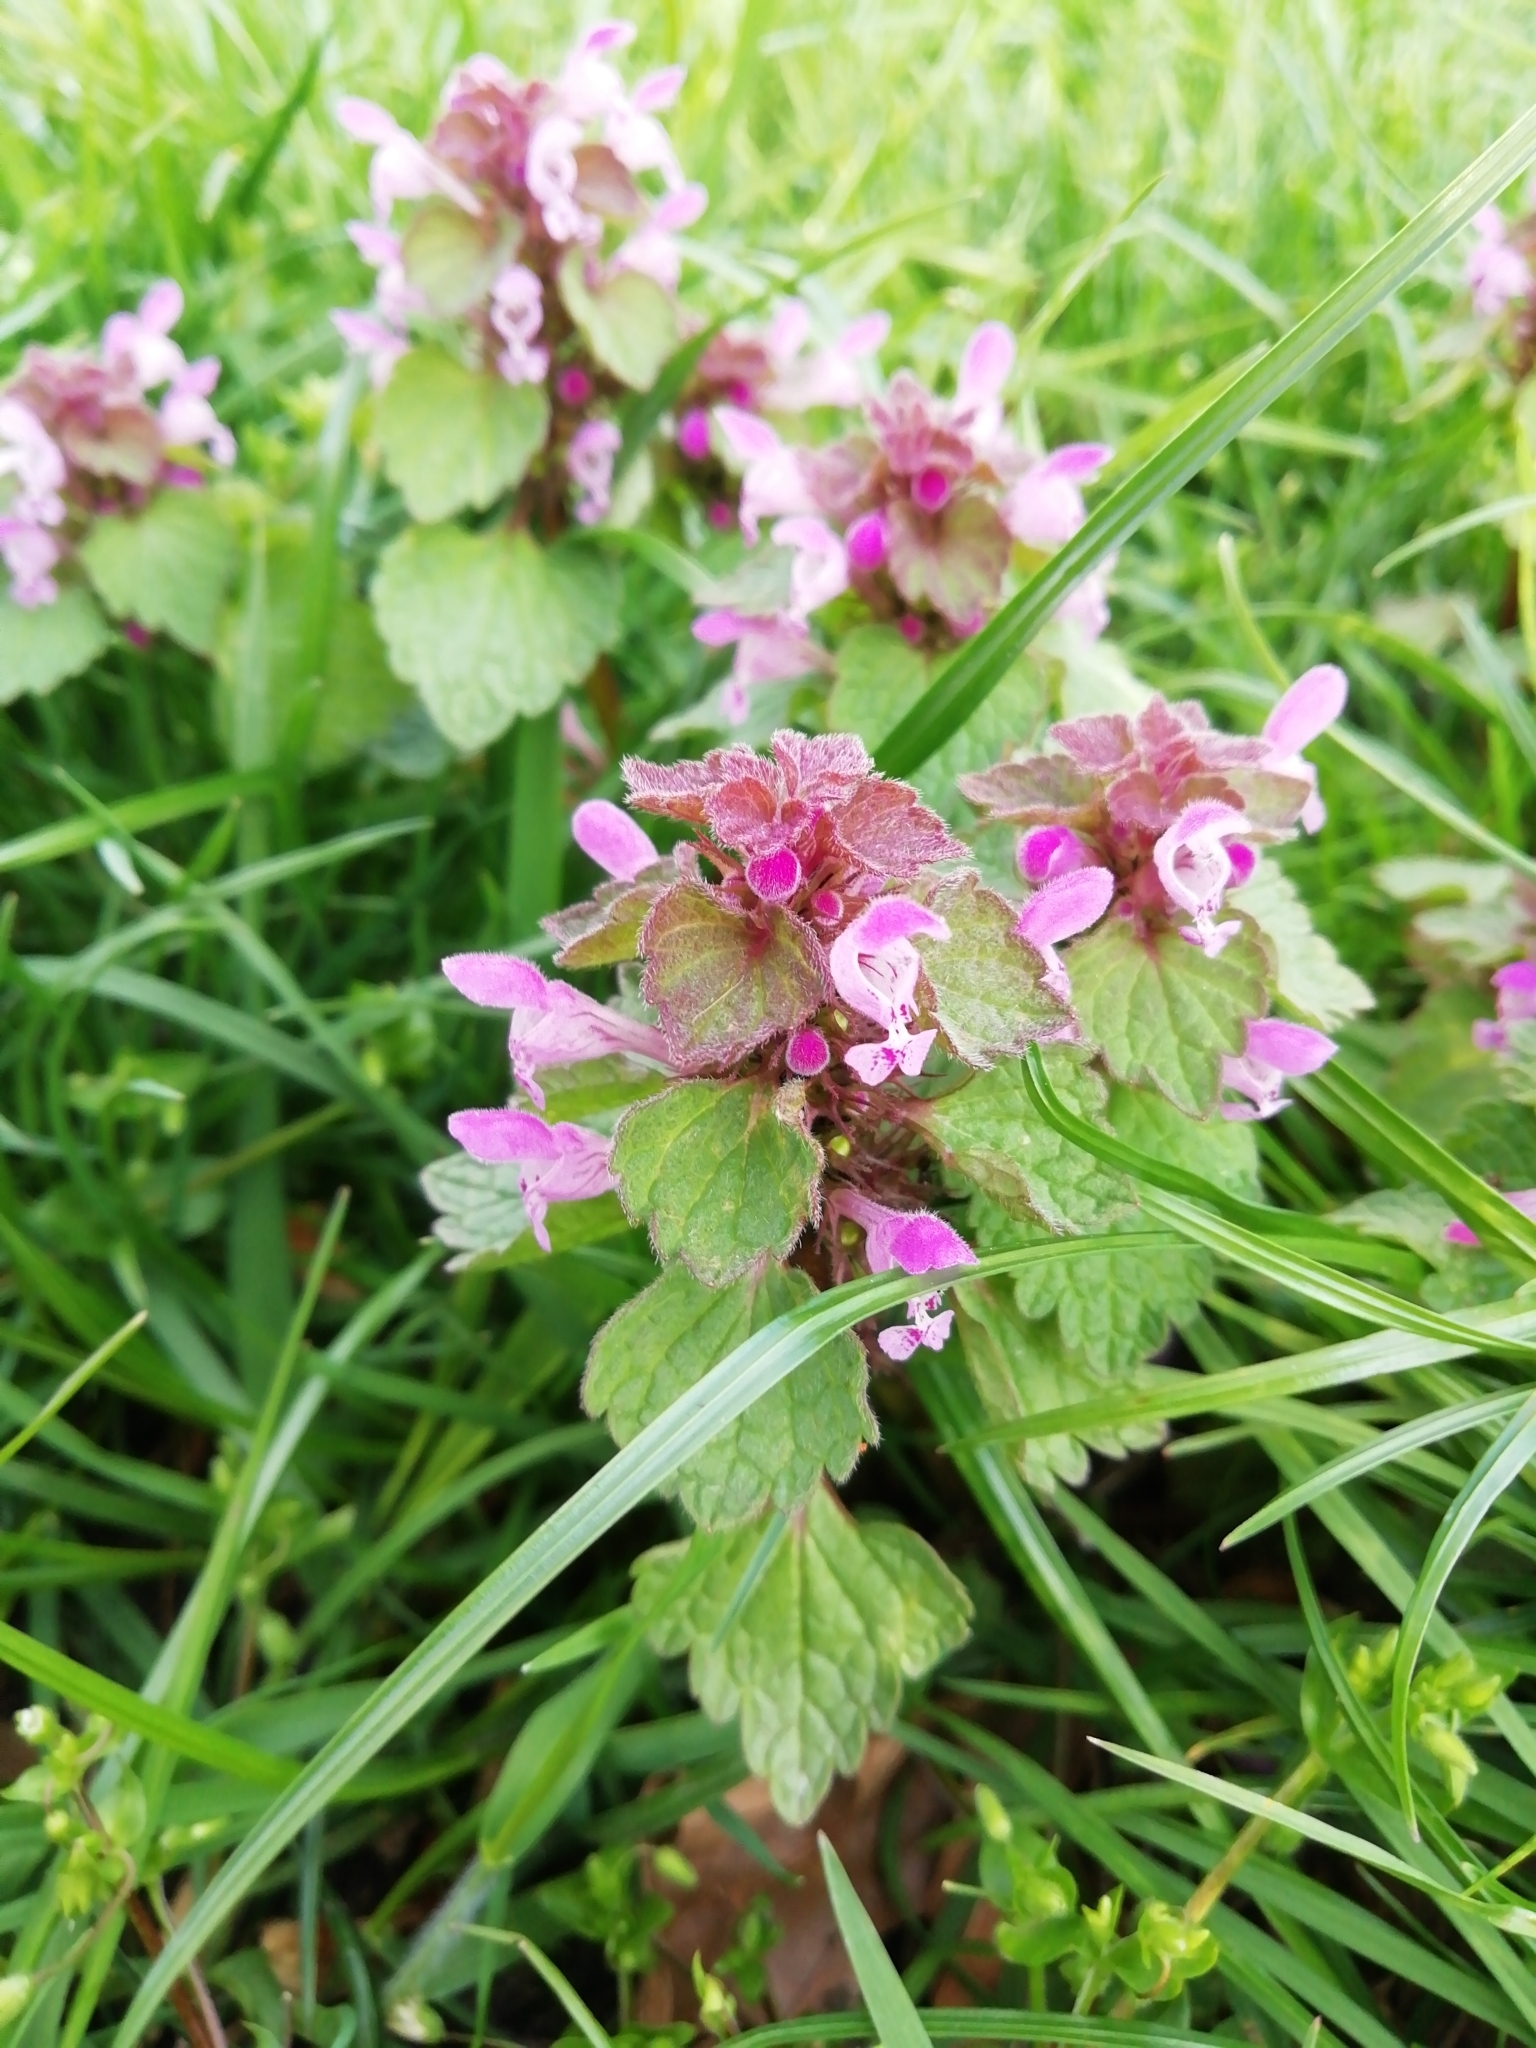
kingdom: Plantae
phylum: Tracheophyta
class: Magnoliopsida
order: Lamiales
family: Lamiaceae
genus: Lamium
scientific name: Lamium purpureum
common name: Red dead-nettle
